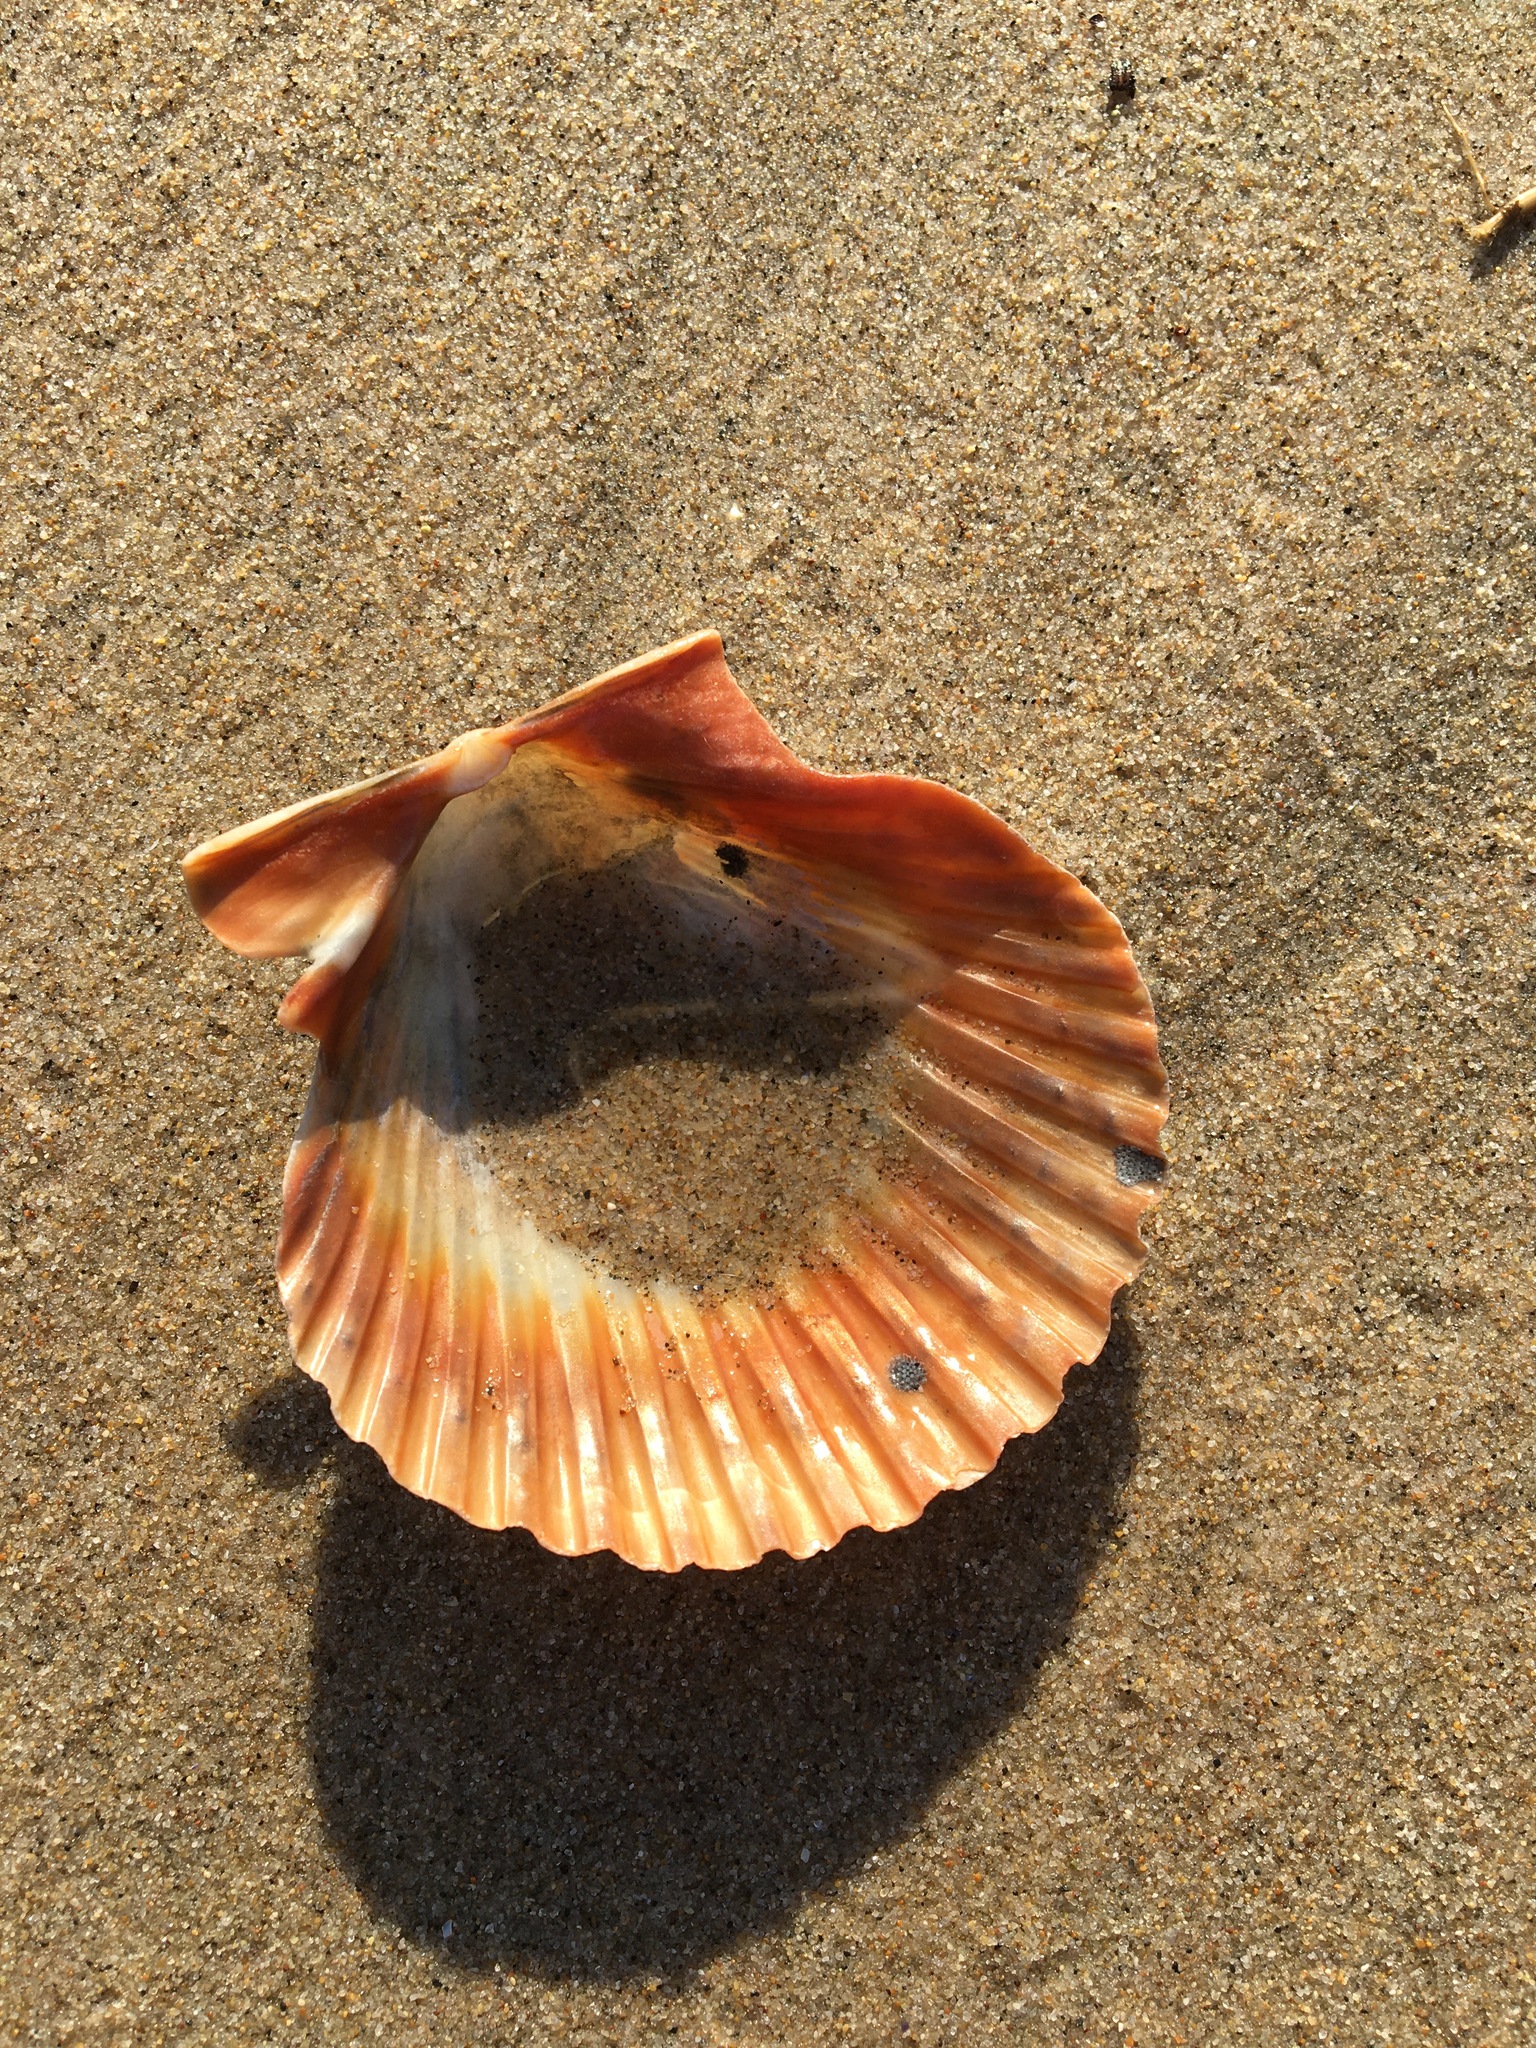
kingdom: Animalia
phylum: Mollusca
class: Bivalvia
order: Pectinida
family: Pectinidae
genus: Argopecten
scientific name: Argopecten ventricosus
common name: Catarina scallop
